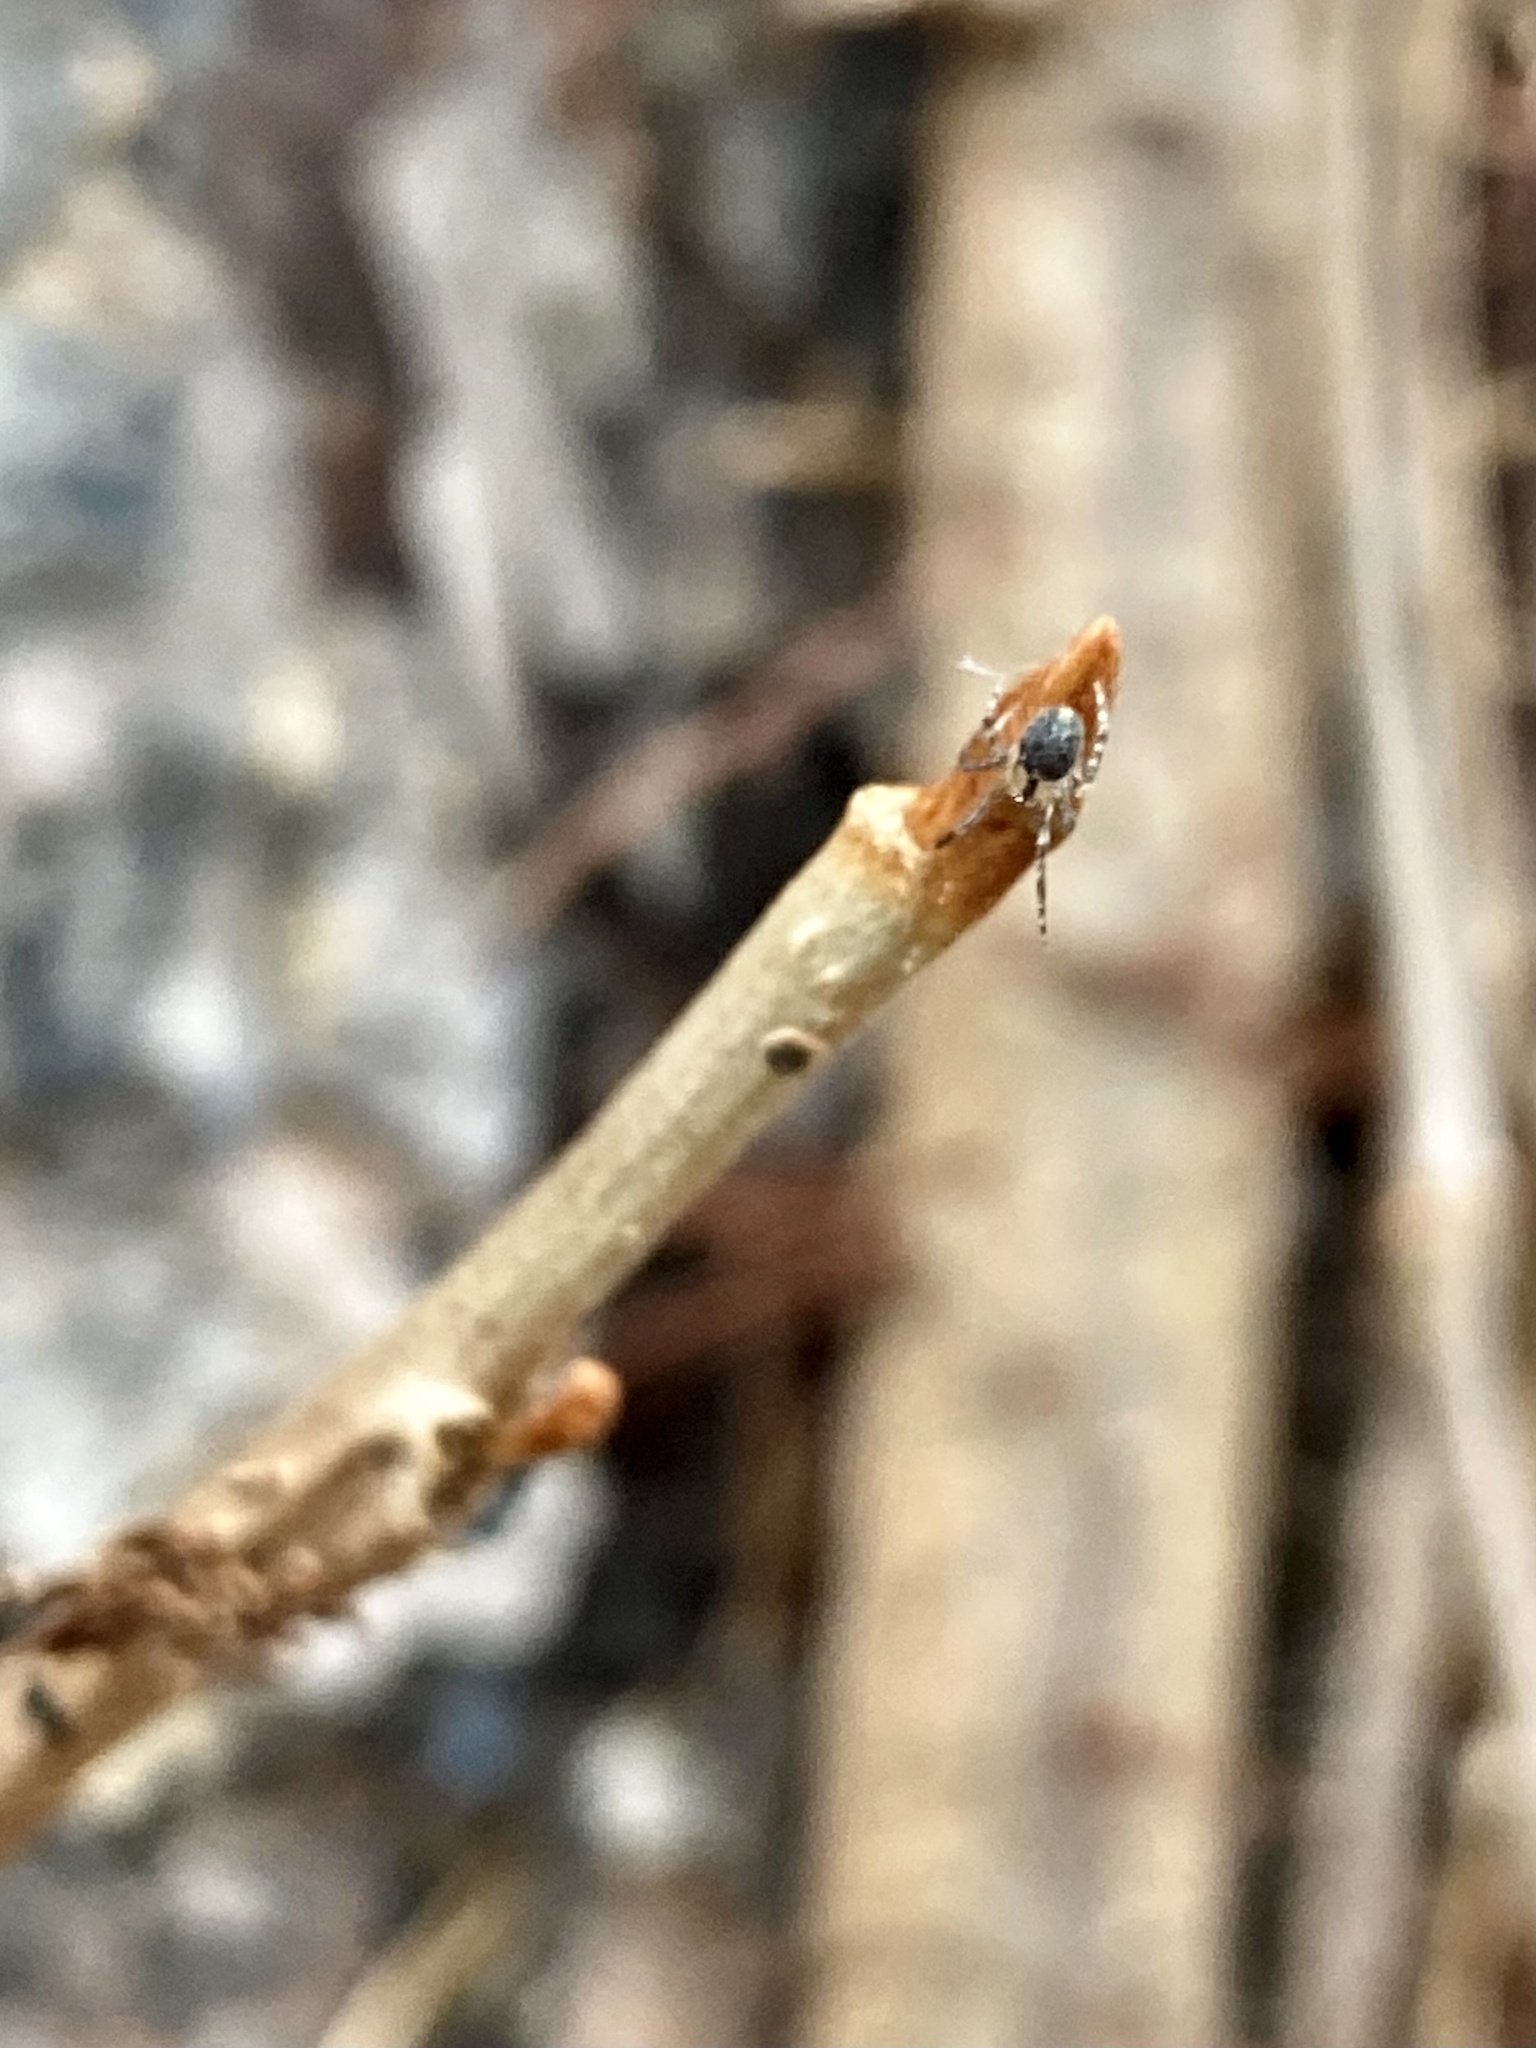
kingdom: Plantae
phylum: Tracheophyta
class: Magnoliopsida
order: Sapindales
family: Anacardiaceae
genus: Toxicodendron
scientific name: Toxicodendron radicans
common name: Poison ivy
